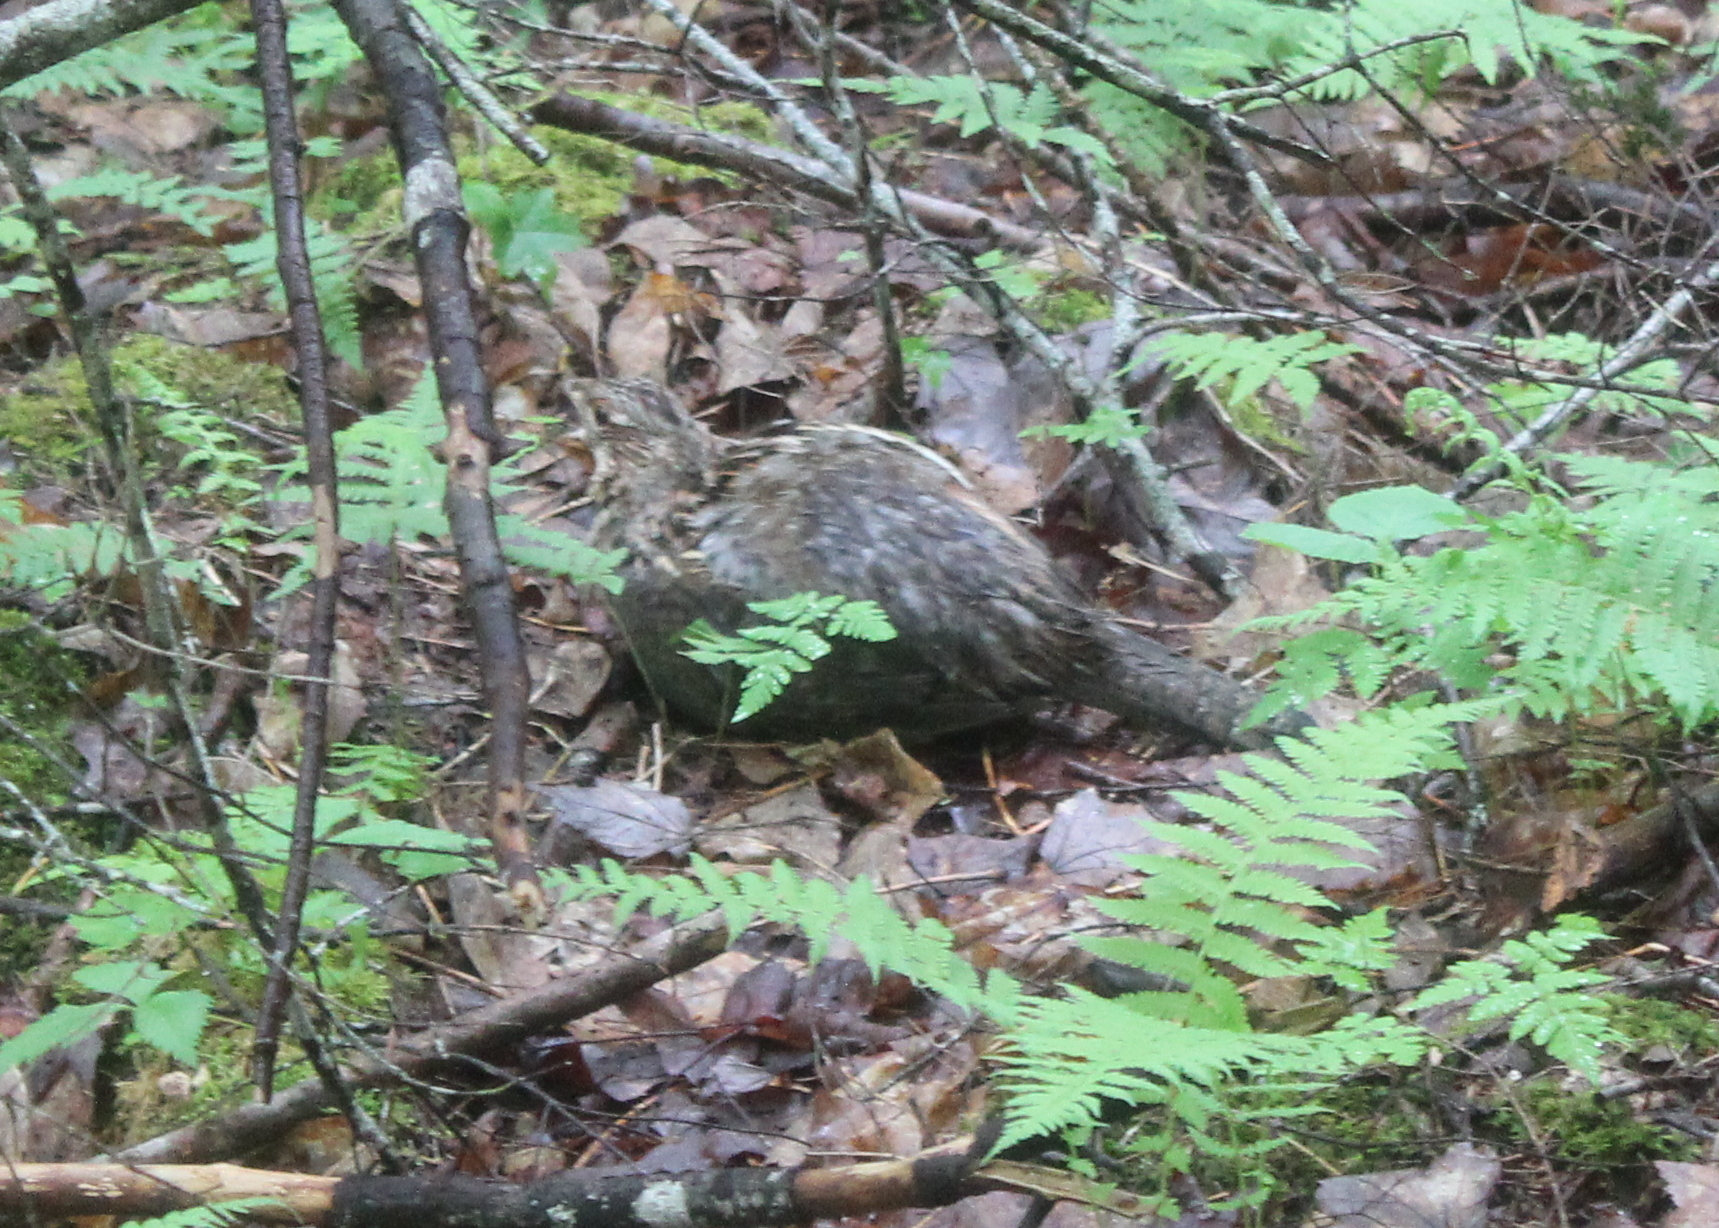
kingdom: Animalia
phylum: Chordata
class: Aves
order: Galliformes
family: Phasianidae
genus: Bonasa
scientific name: Bonasa umbellus
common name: Ruffed grouse
